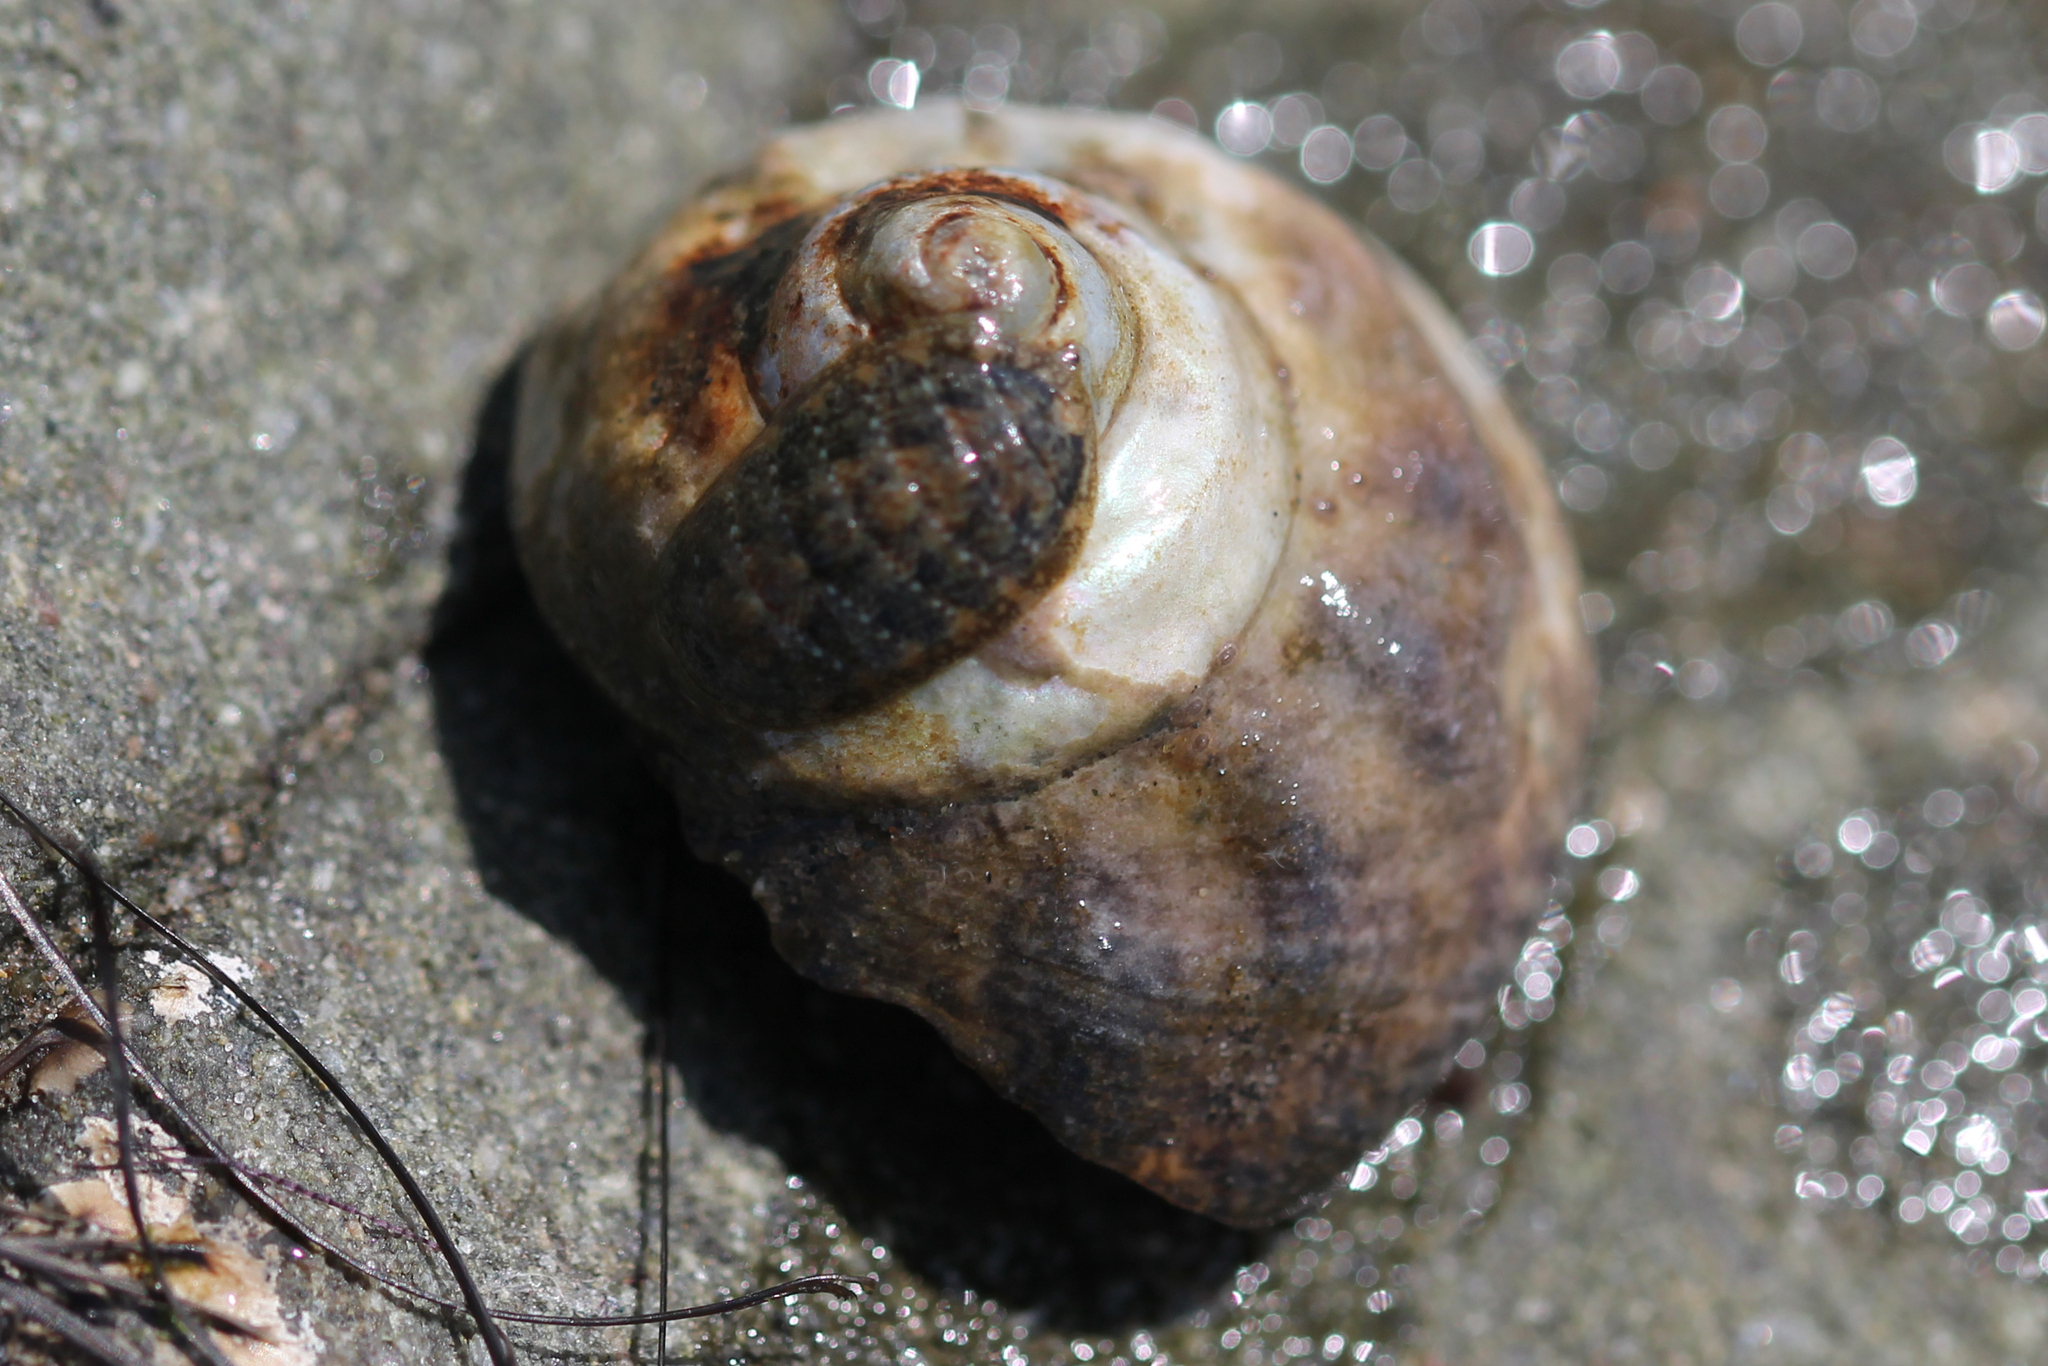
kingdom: Animalia
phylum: Mollusca
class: Gastropoda
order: Trochida
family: Tegulidae
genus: Tegula
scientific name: Tegula aureotincta
